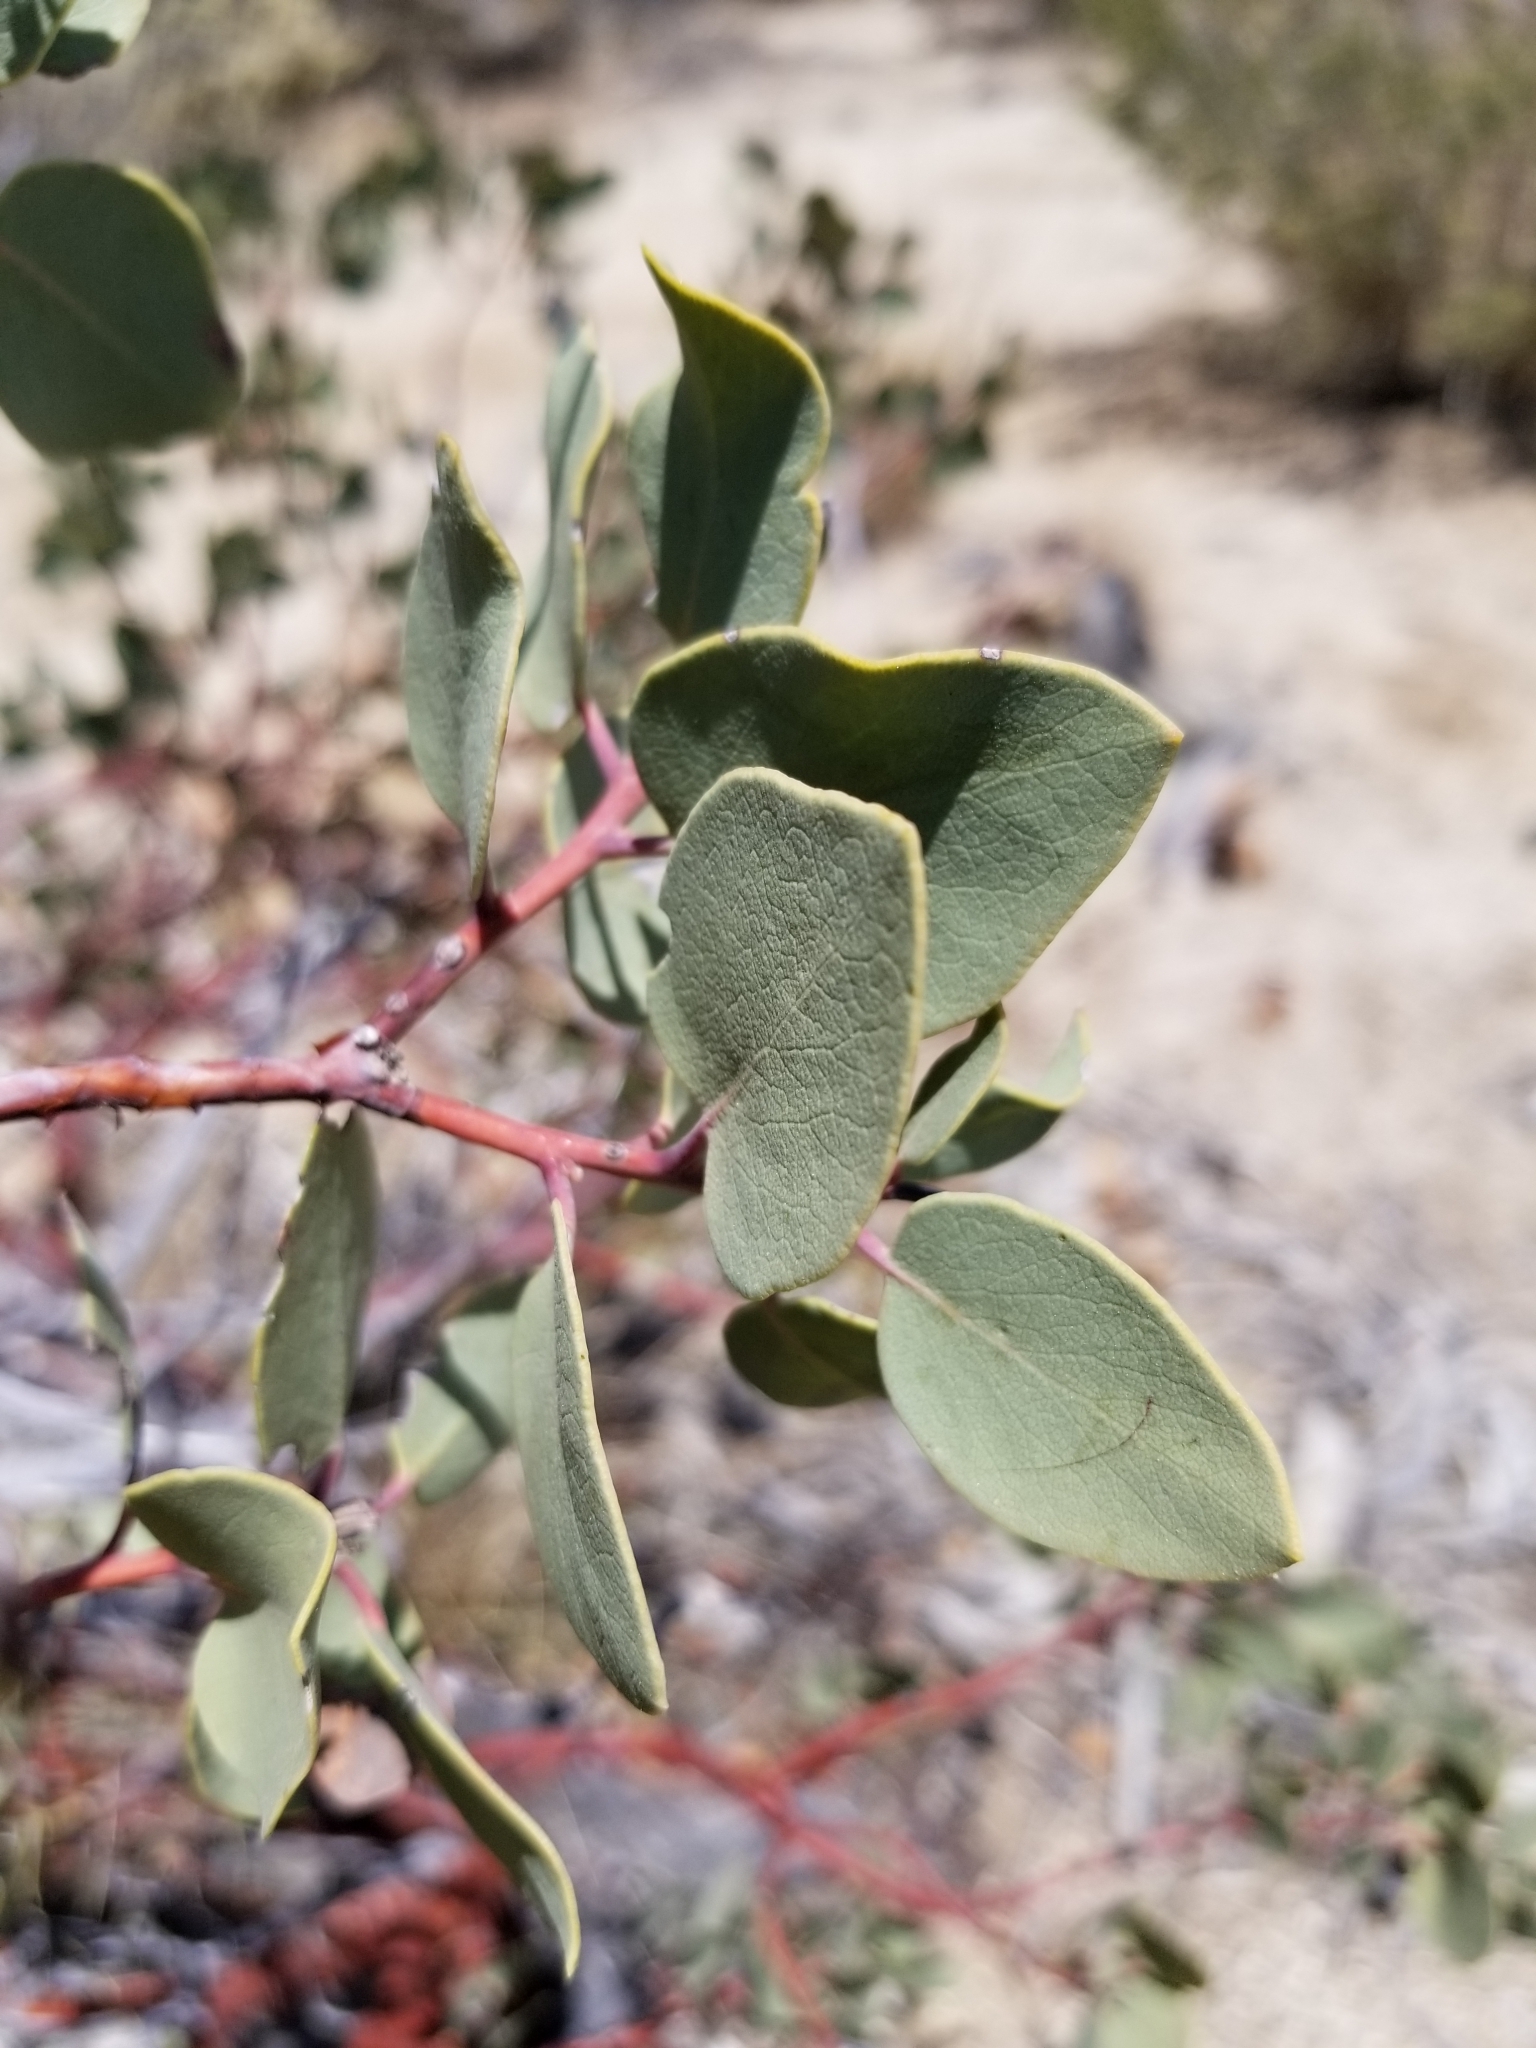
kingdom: Plantae
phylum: Tracheophyta
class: Magnoliopsida
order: Ericales
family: Ericaceae
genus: Arctostaphylos
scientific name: Arctostaphylos glauca
